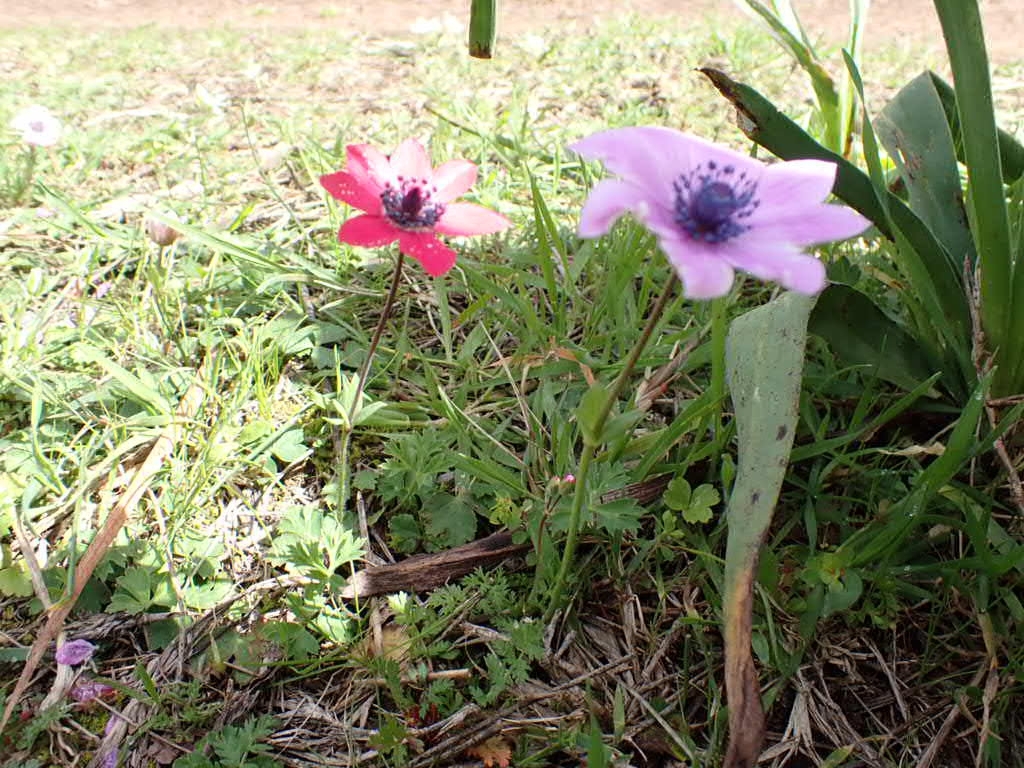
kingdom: Plantae
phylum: Tracheophyta
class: Magnoliopsida
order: Ranunculales
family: Ranunculaceae
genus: Anemone
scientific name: Anemone pavonina
